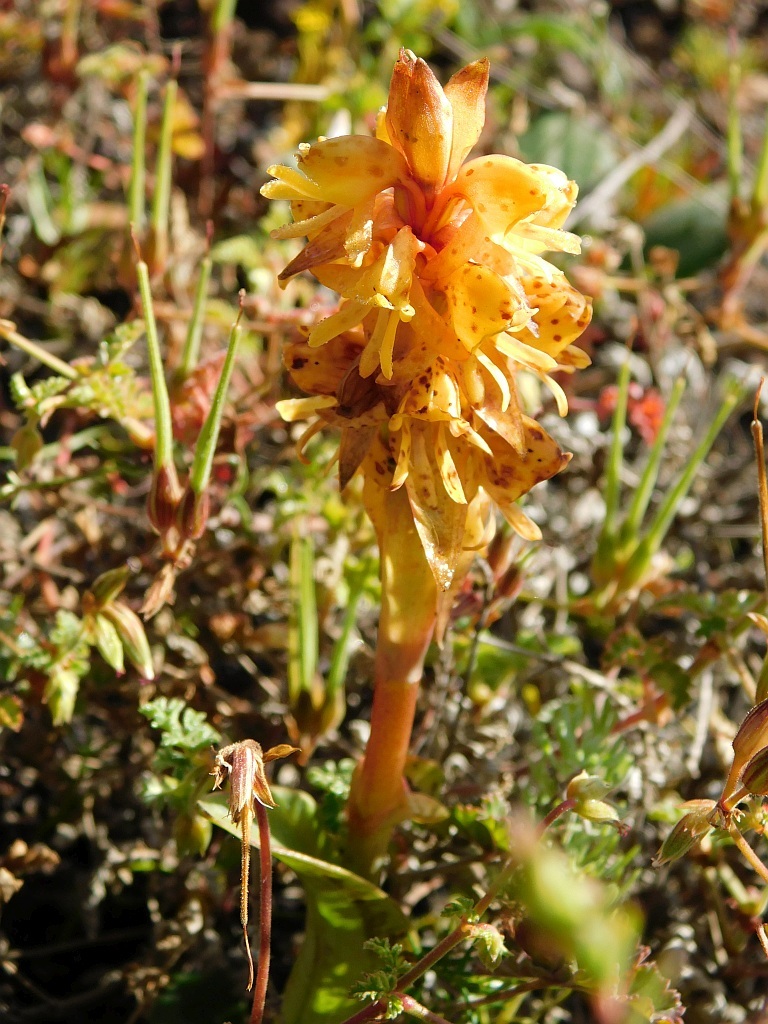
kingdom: Plantae
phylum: Tracheophyta
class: Liliopsida
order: Asparagales
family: Orchidaceae
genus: Satyrium
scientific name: Satyrium coriifolium
